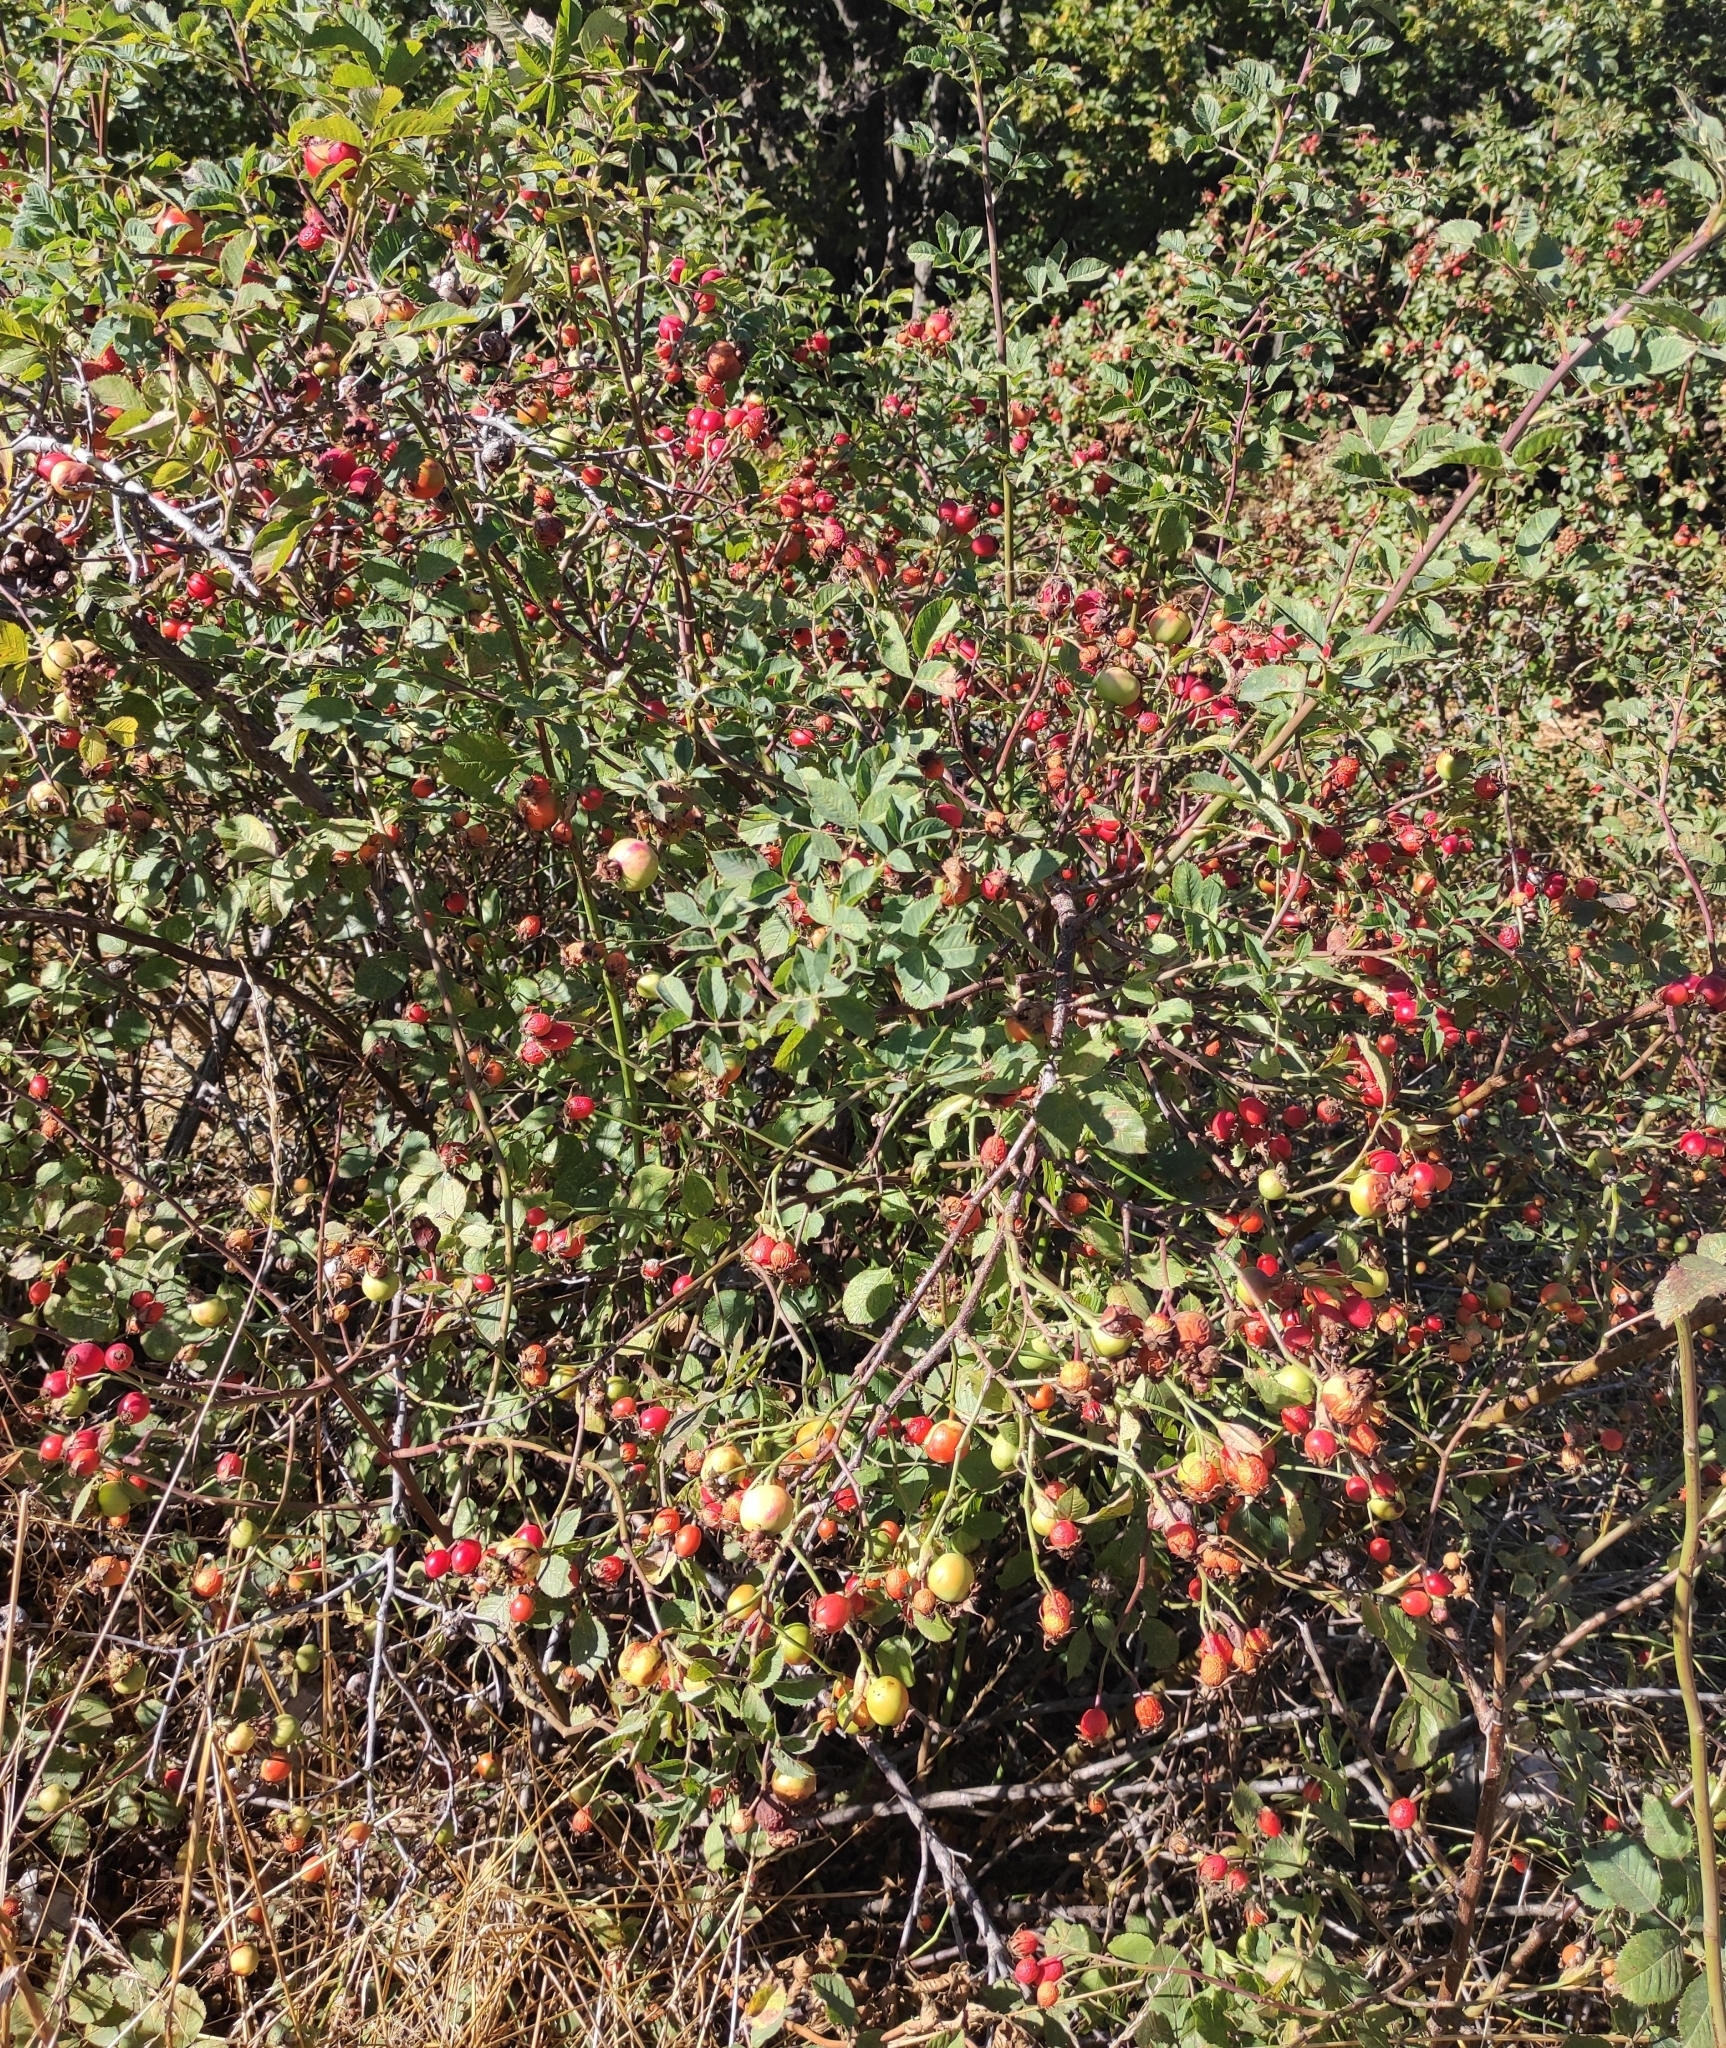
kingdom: Plantae
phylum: Tracheophyta
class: Magnoliopsida
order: Rosales
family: Rosaceae
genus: Rosa
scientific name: Rosa
